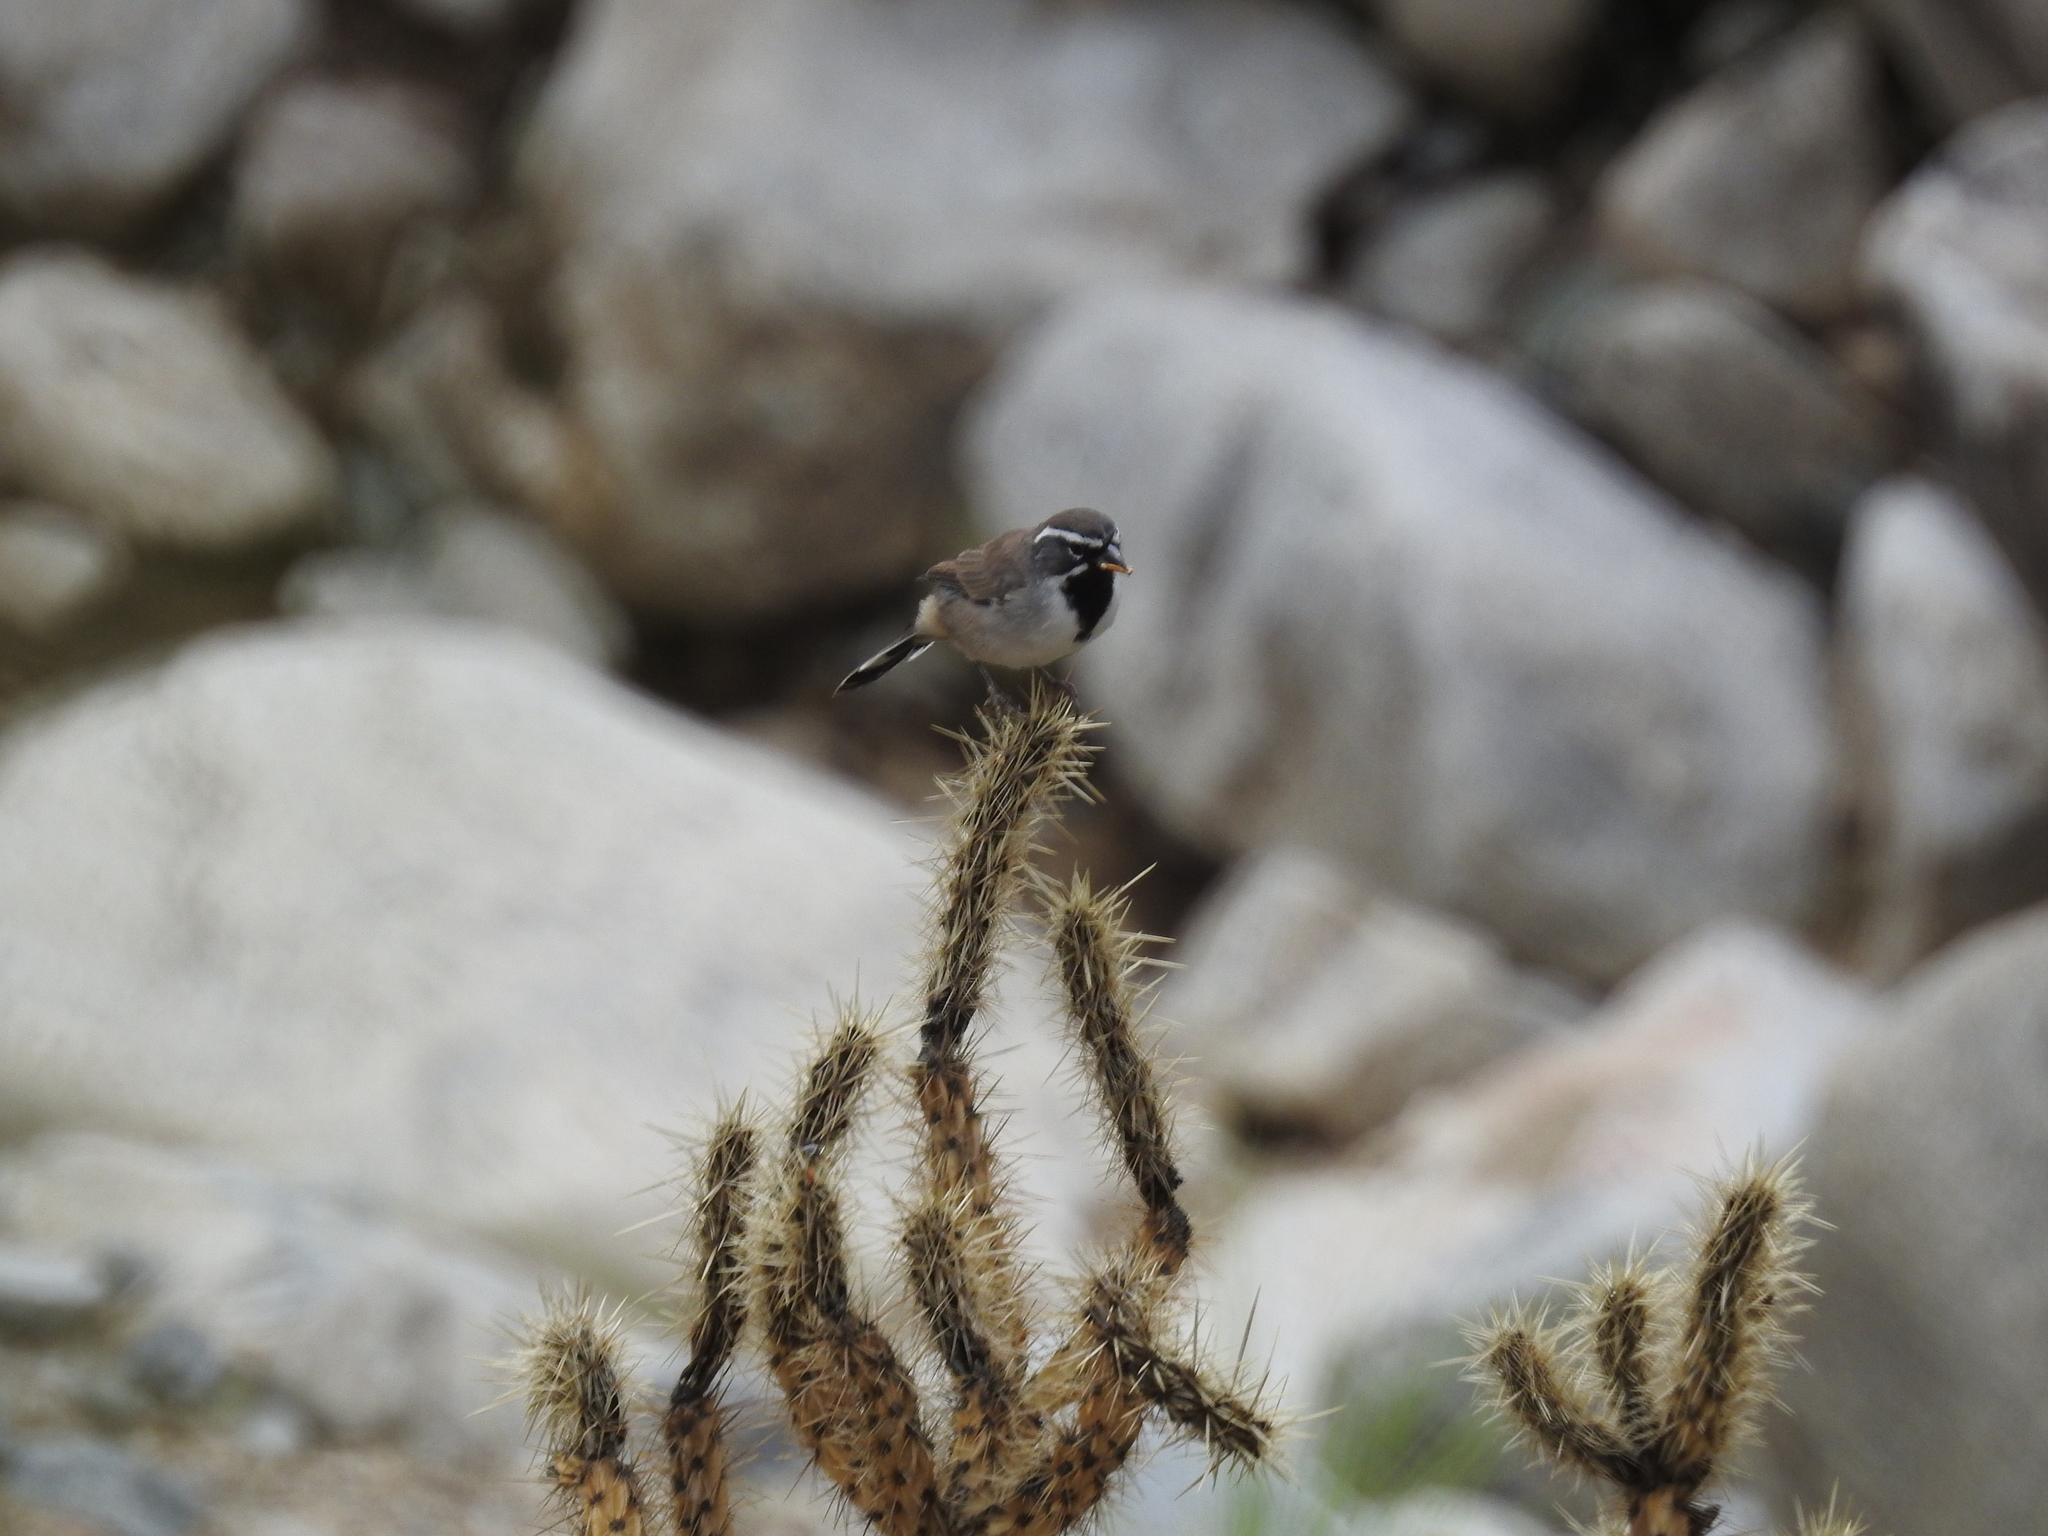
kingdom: Animalia
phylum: Chordata
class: Aves
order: Passeriformes
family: Passerellidae
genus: Amphispiza
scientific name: Amphispiza bilineata
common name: Black-throated sparrow
